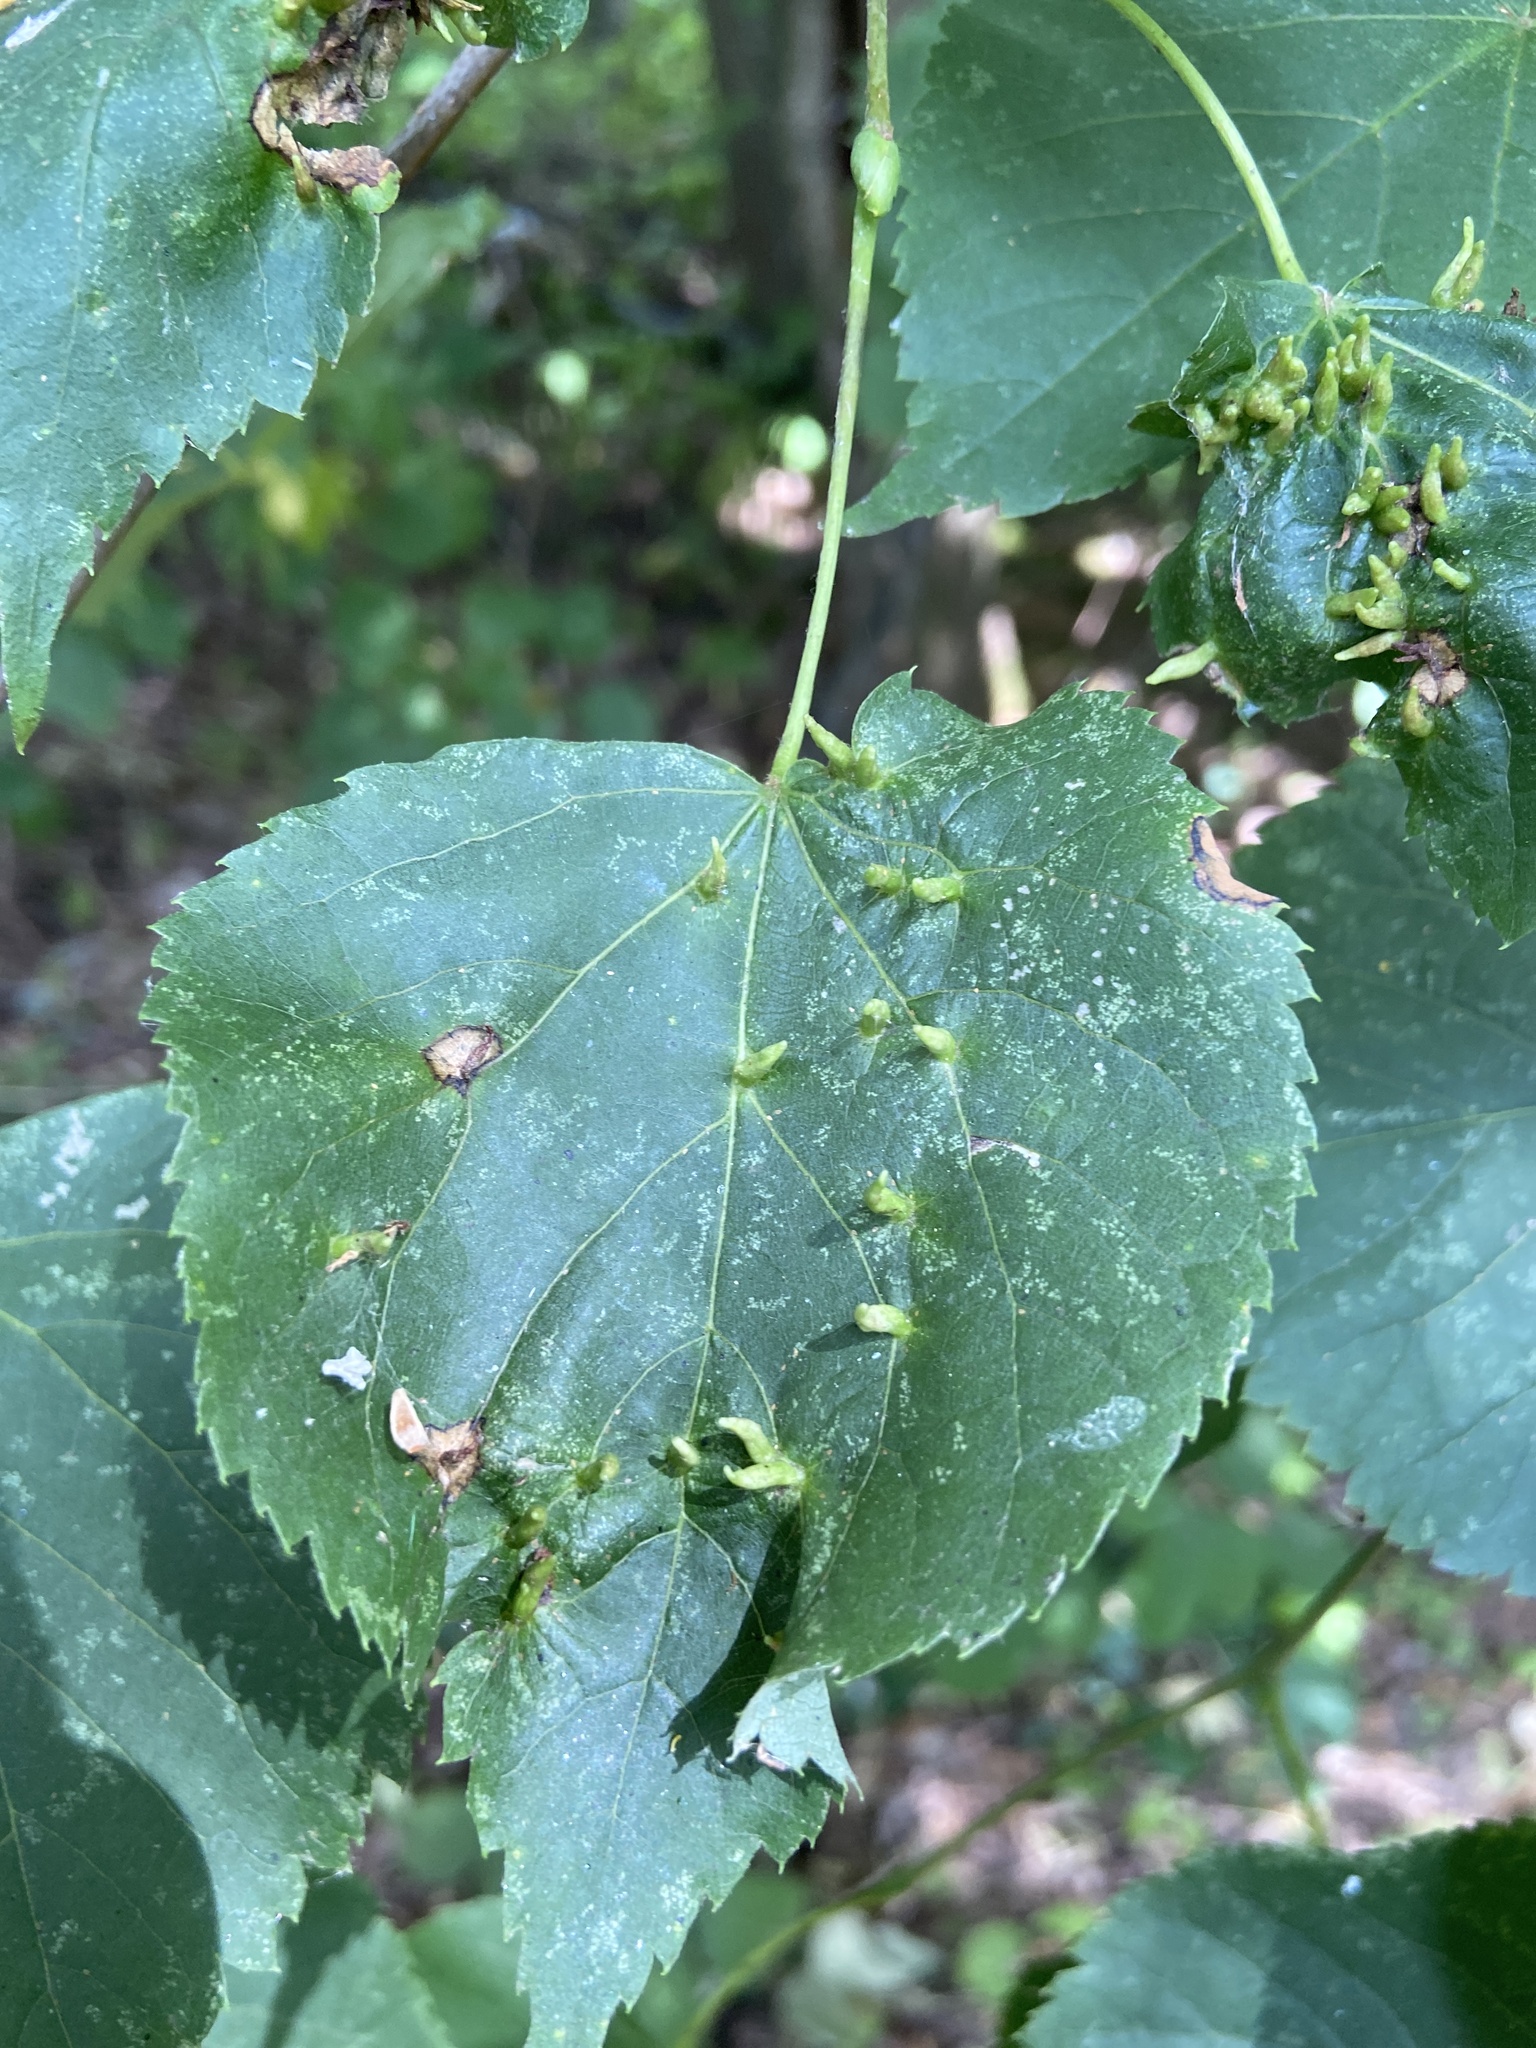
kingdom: Animalia
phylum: Arthropoda
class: Arachnida
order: Trombidiformes
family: Eriophyidae
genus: Eriophyes
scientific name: Eriophyes tiliae
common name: Red nail gall mite
